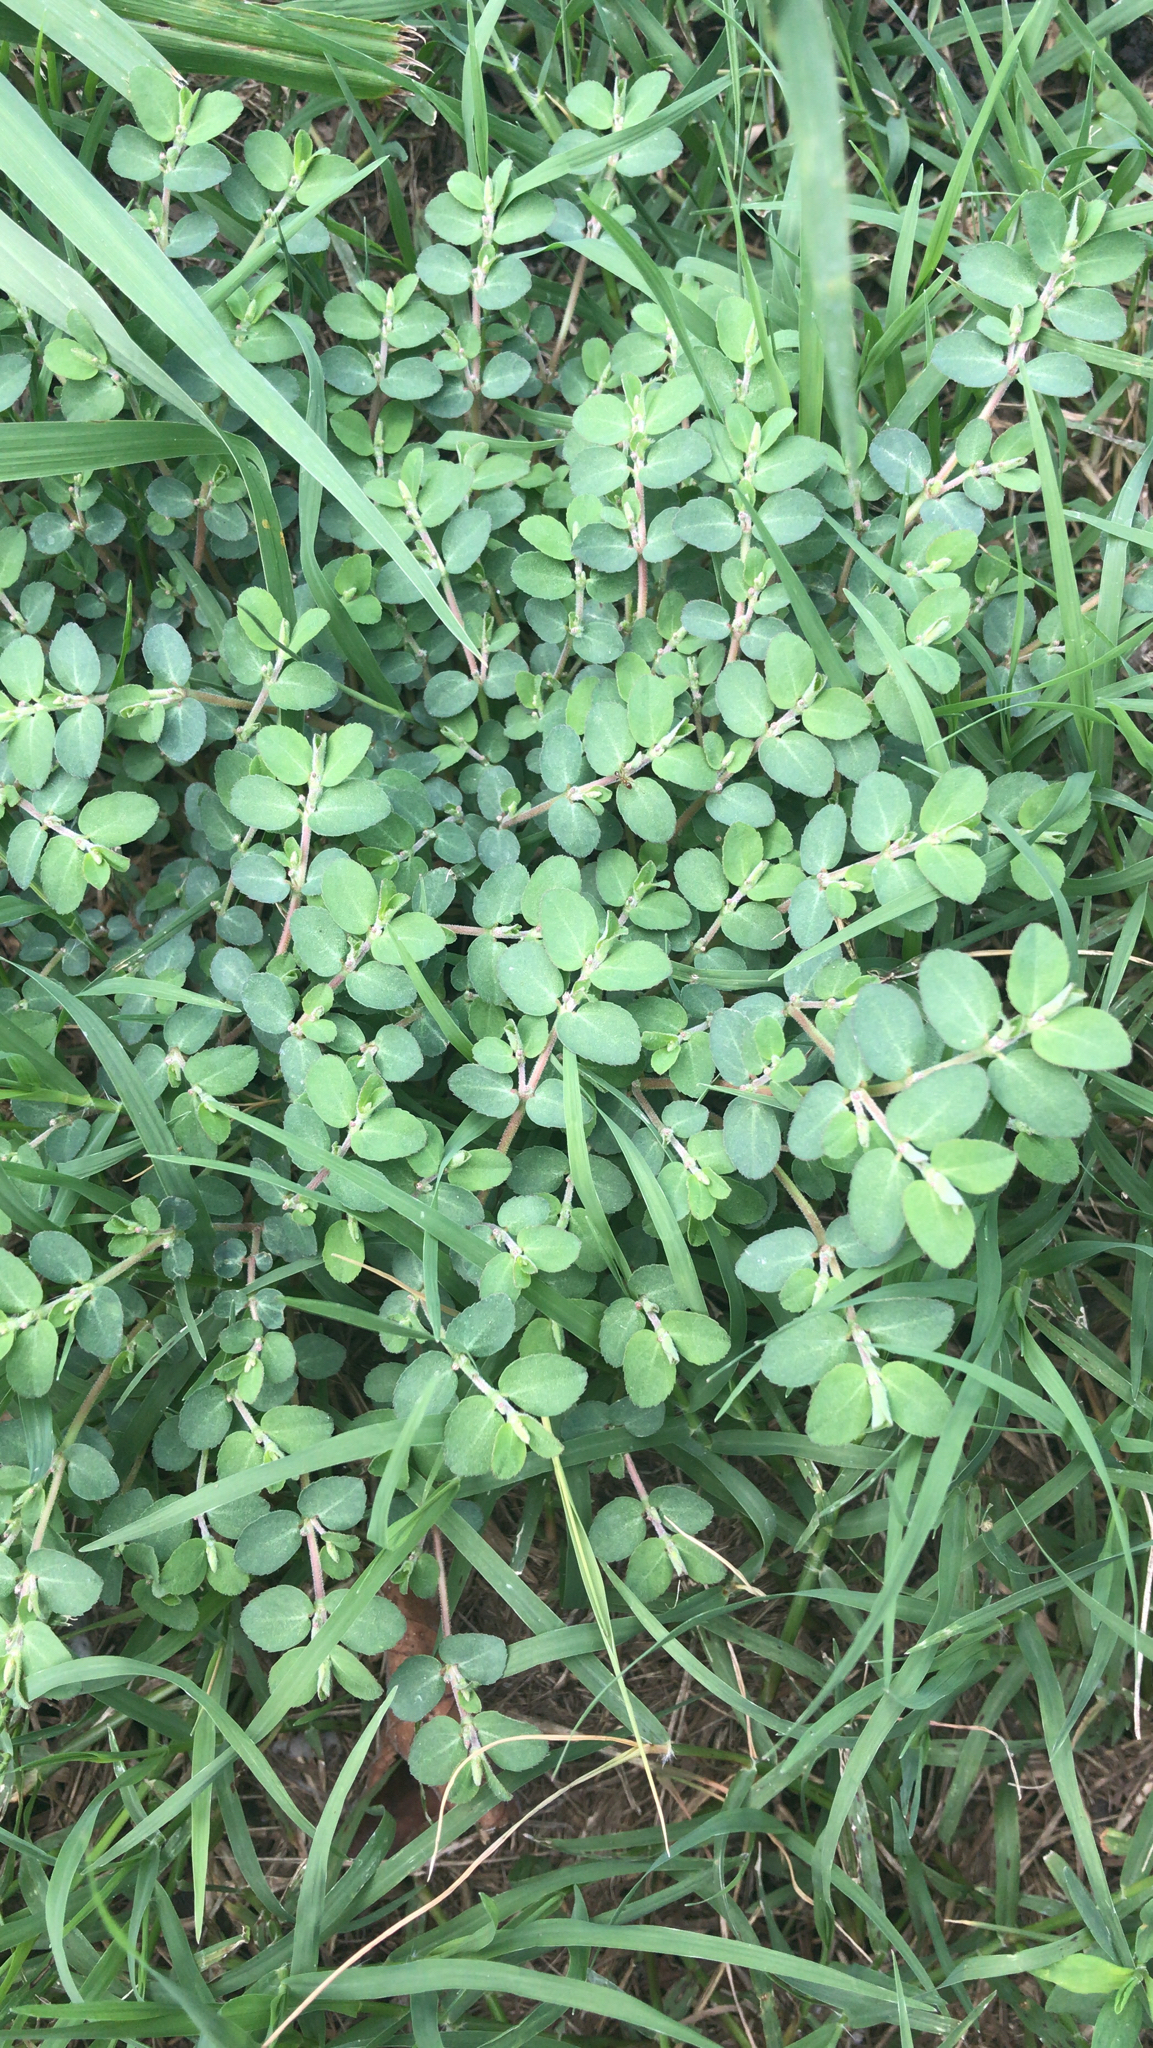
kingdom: Plantae
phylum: Tracheophyta
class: Magnoliopsida
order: Malpighiales
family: Euphorbiaceae
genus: Euphorbia
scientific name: Euphorbia prostrata
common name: Prostrate sandmat
